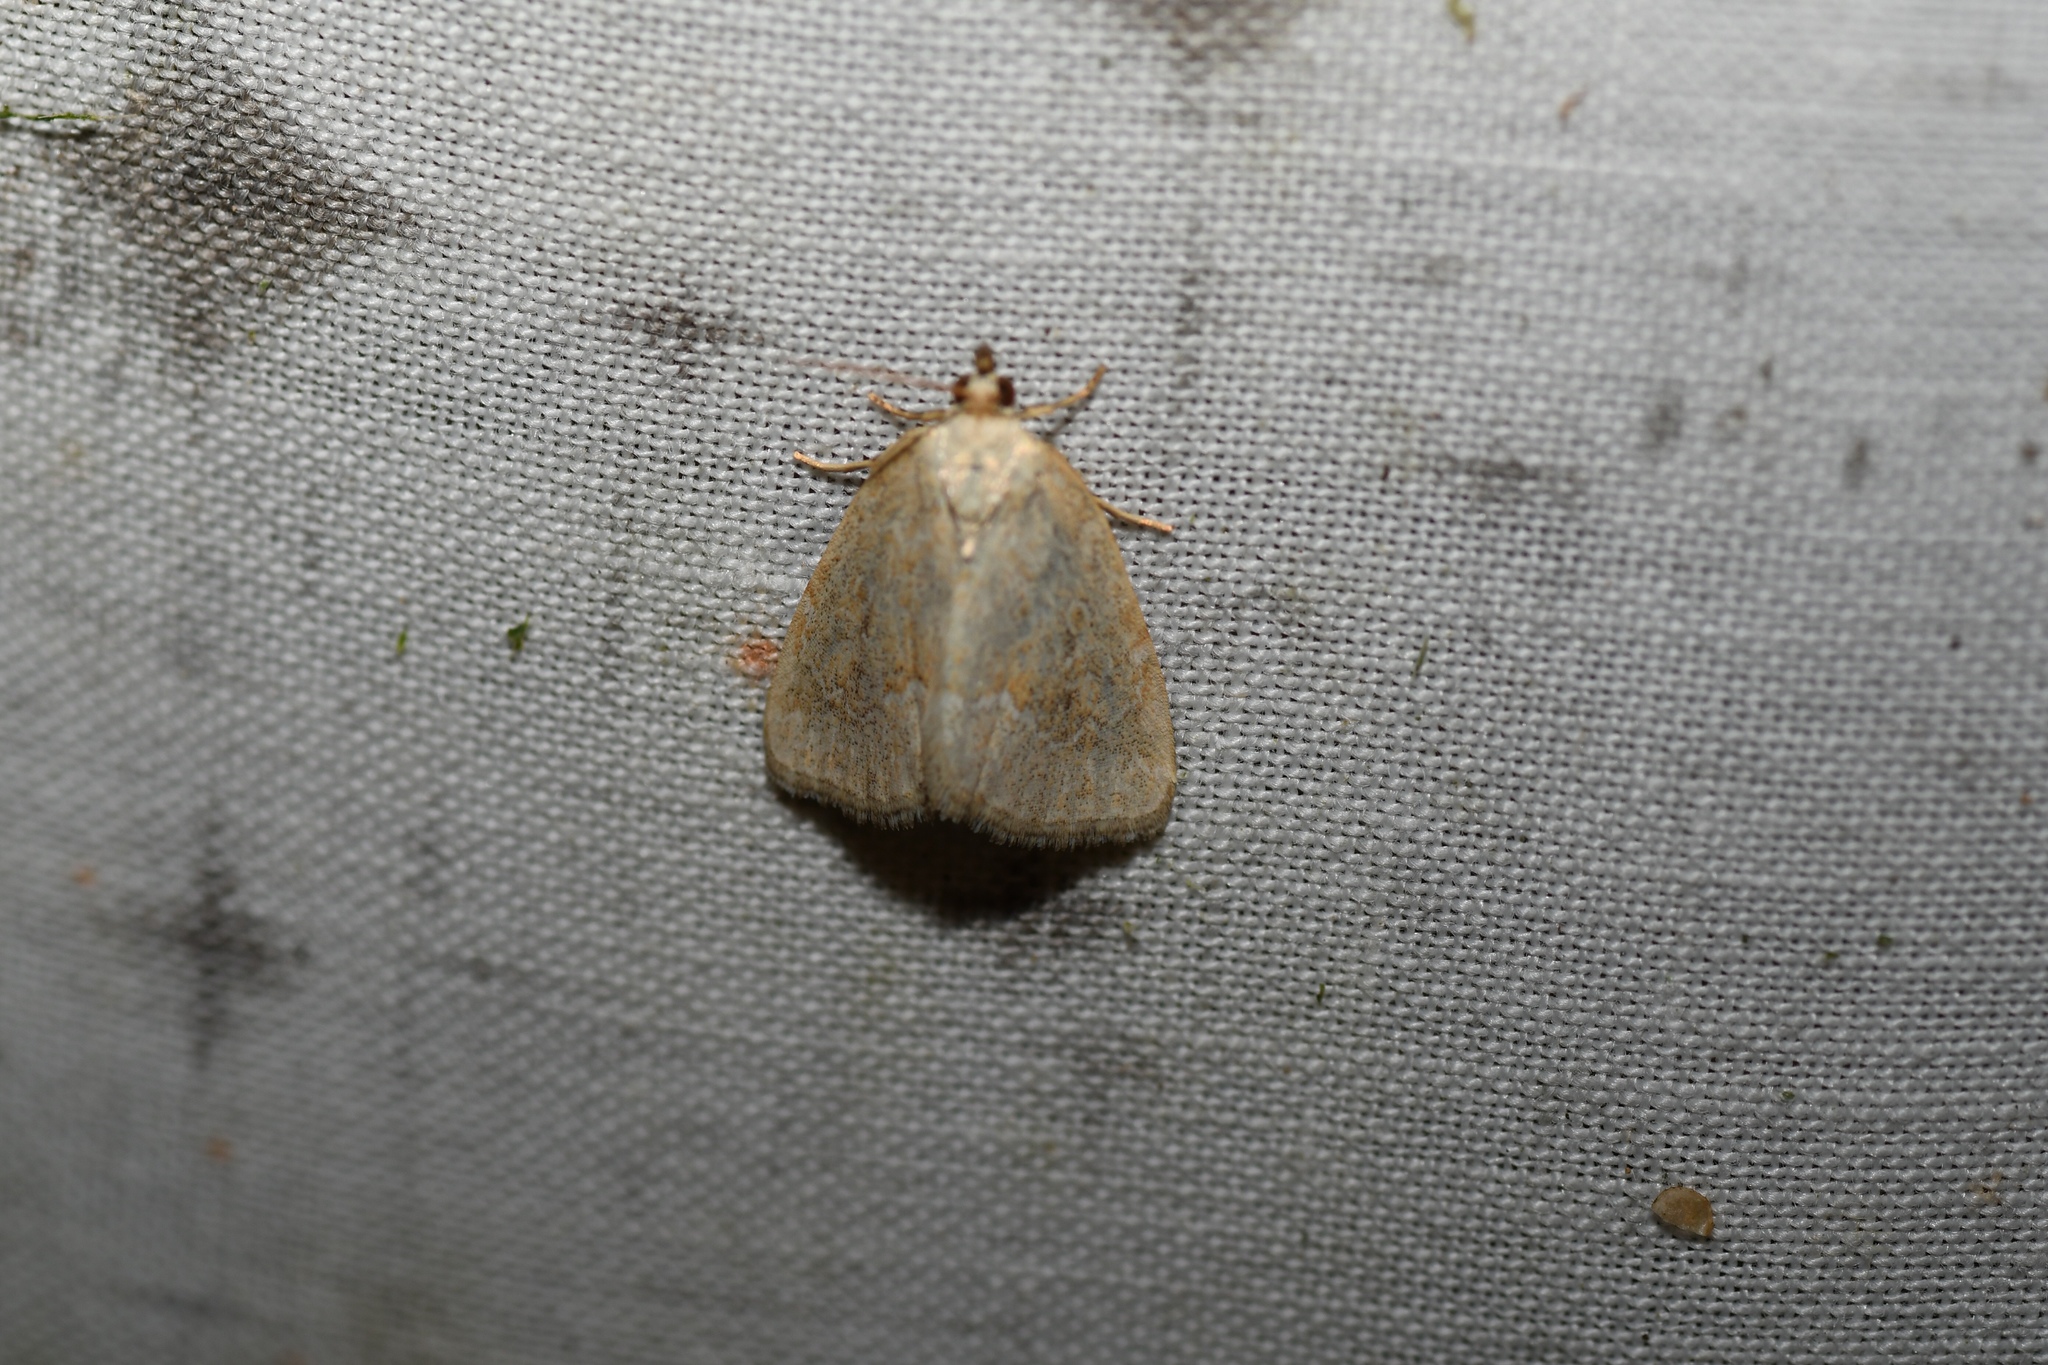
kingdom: Animalia
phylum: Arthropoda
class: Insecta
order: Lepidoptera
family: Noctuidae
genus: Protodeltote
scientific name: Protodeltote albidula
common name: Pale glyph
